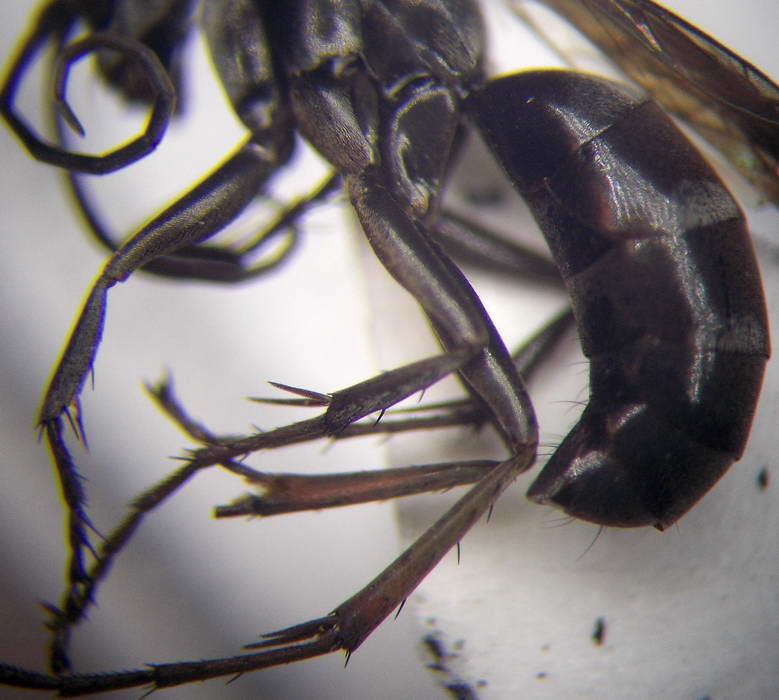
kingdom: Animalia
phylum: Arthropoda
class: Insecta
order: Hymenoptera
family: Pompilidae
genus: Aporinellus
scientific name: Aporinellus sexmaculatus
